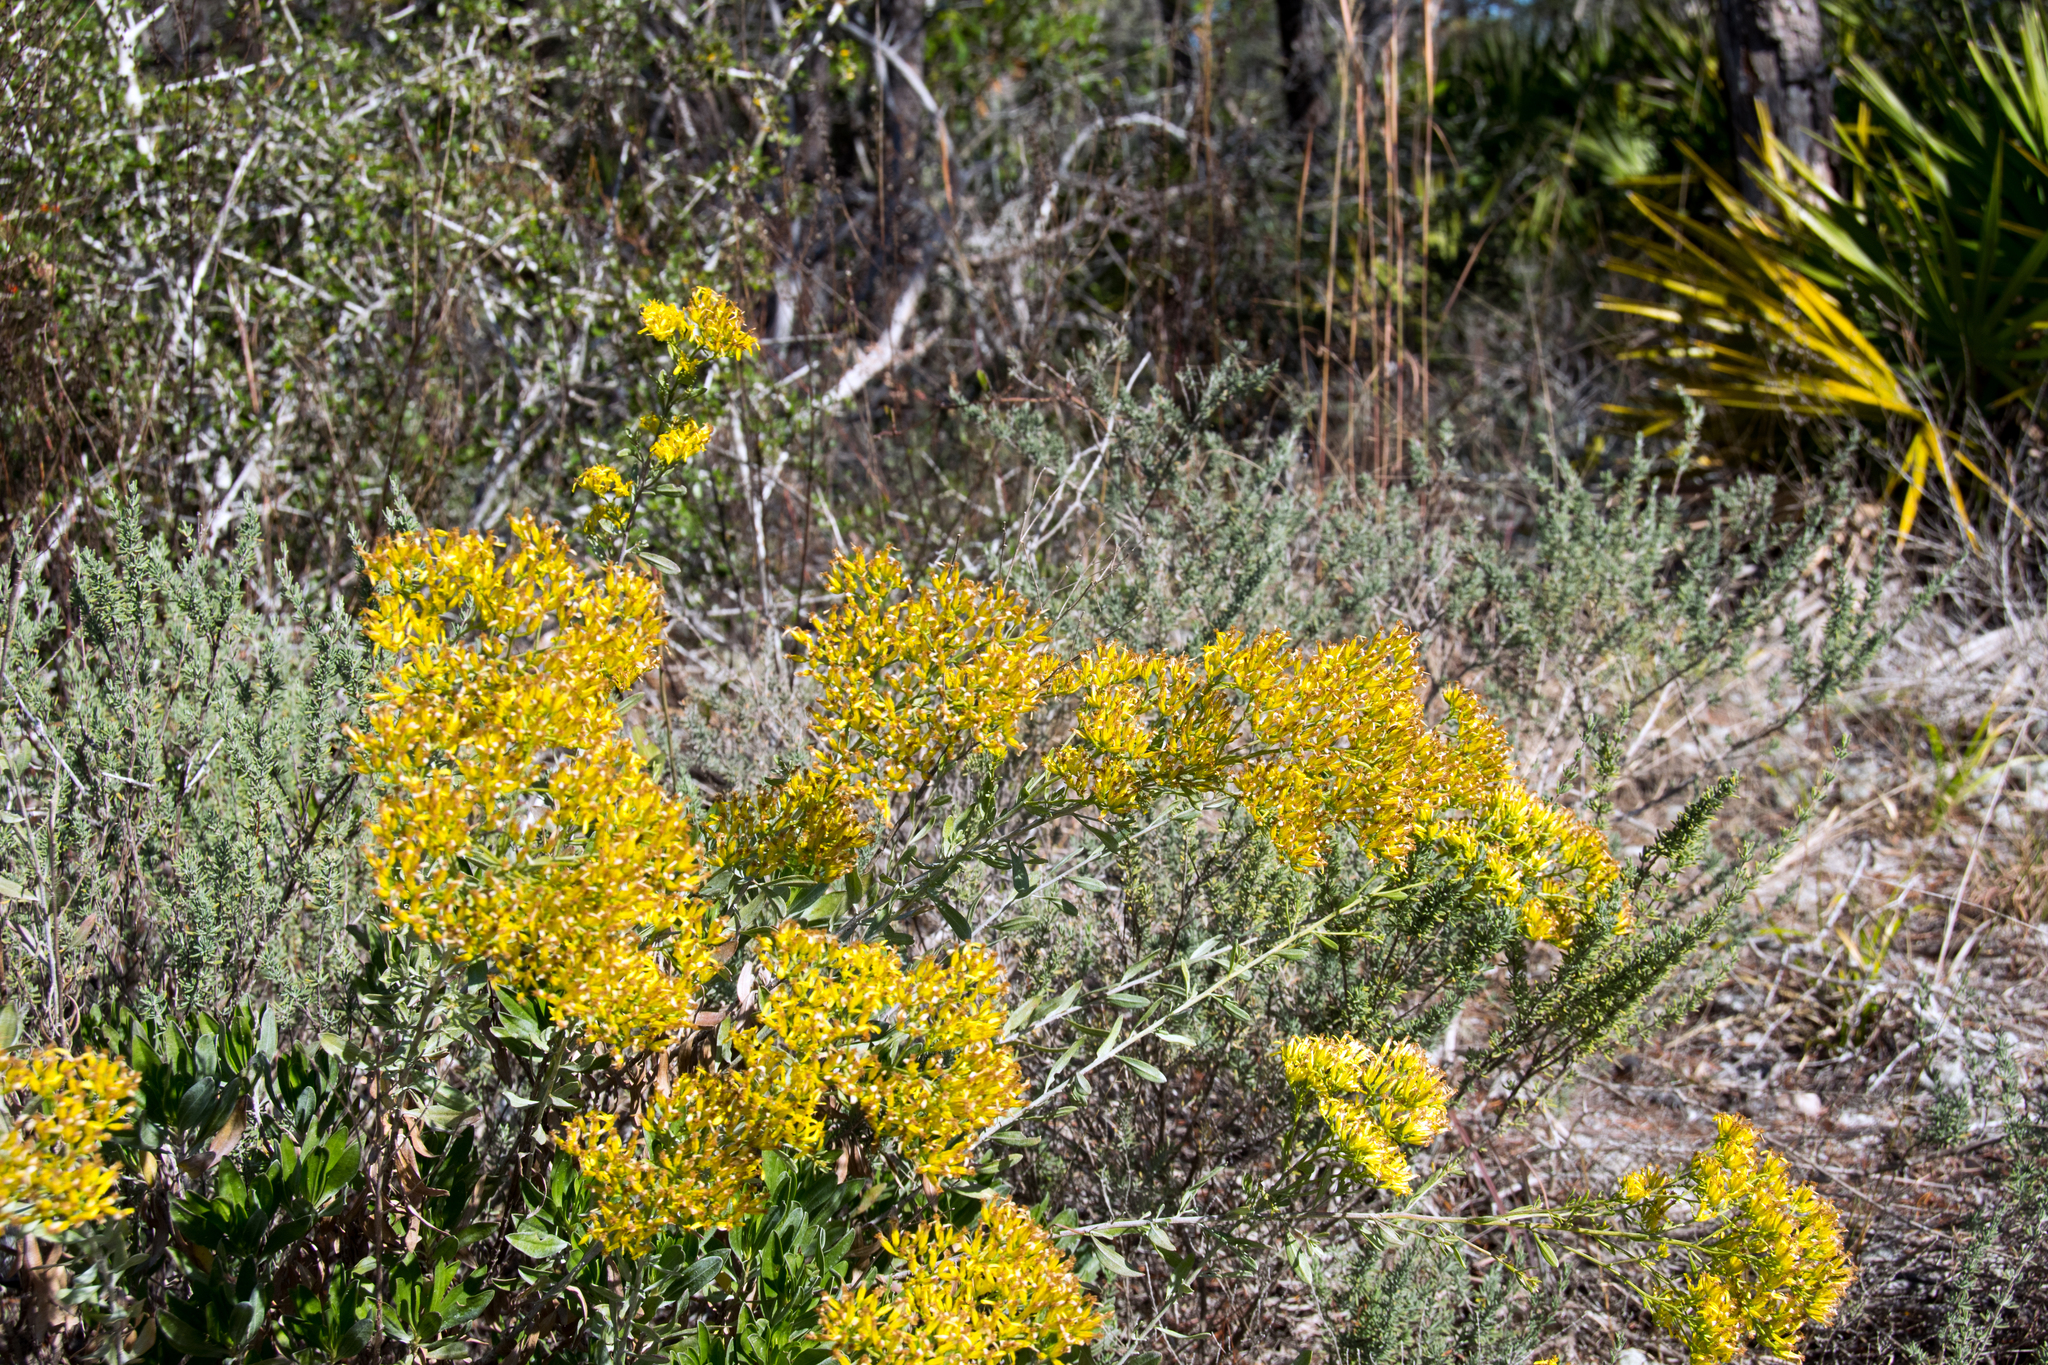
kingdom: Plantae
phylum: Tracheophyta
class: Magnoliopsida
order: Asterales
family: Asteraceae
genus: Chrysoma
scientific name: Chrysoma pauciflosculosa
